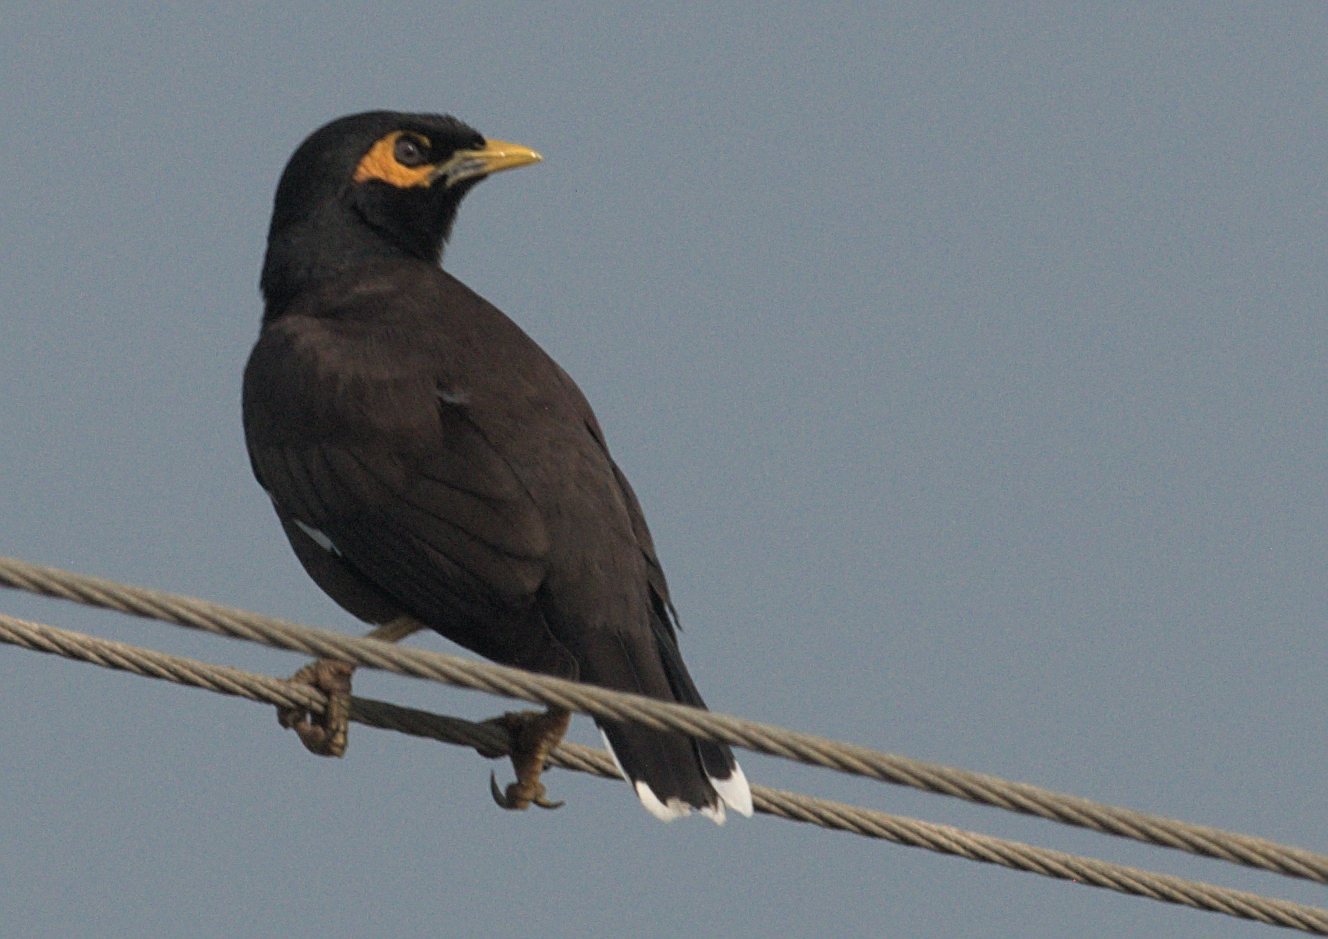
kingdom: Animalia
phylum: Chordata
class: Aves
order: Passeriformes
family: Sturnidae
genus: Acridotheres
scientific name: Acridotheres tristis
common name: Common myna
